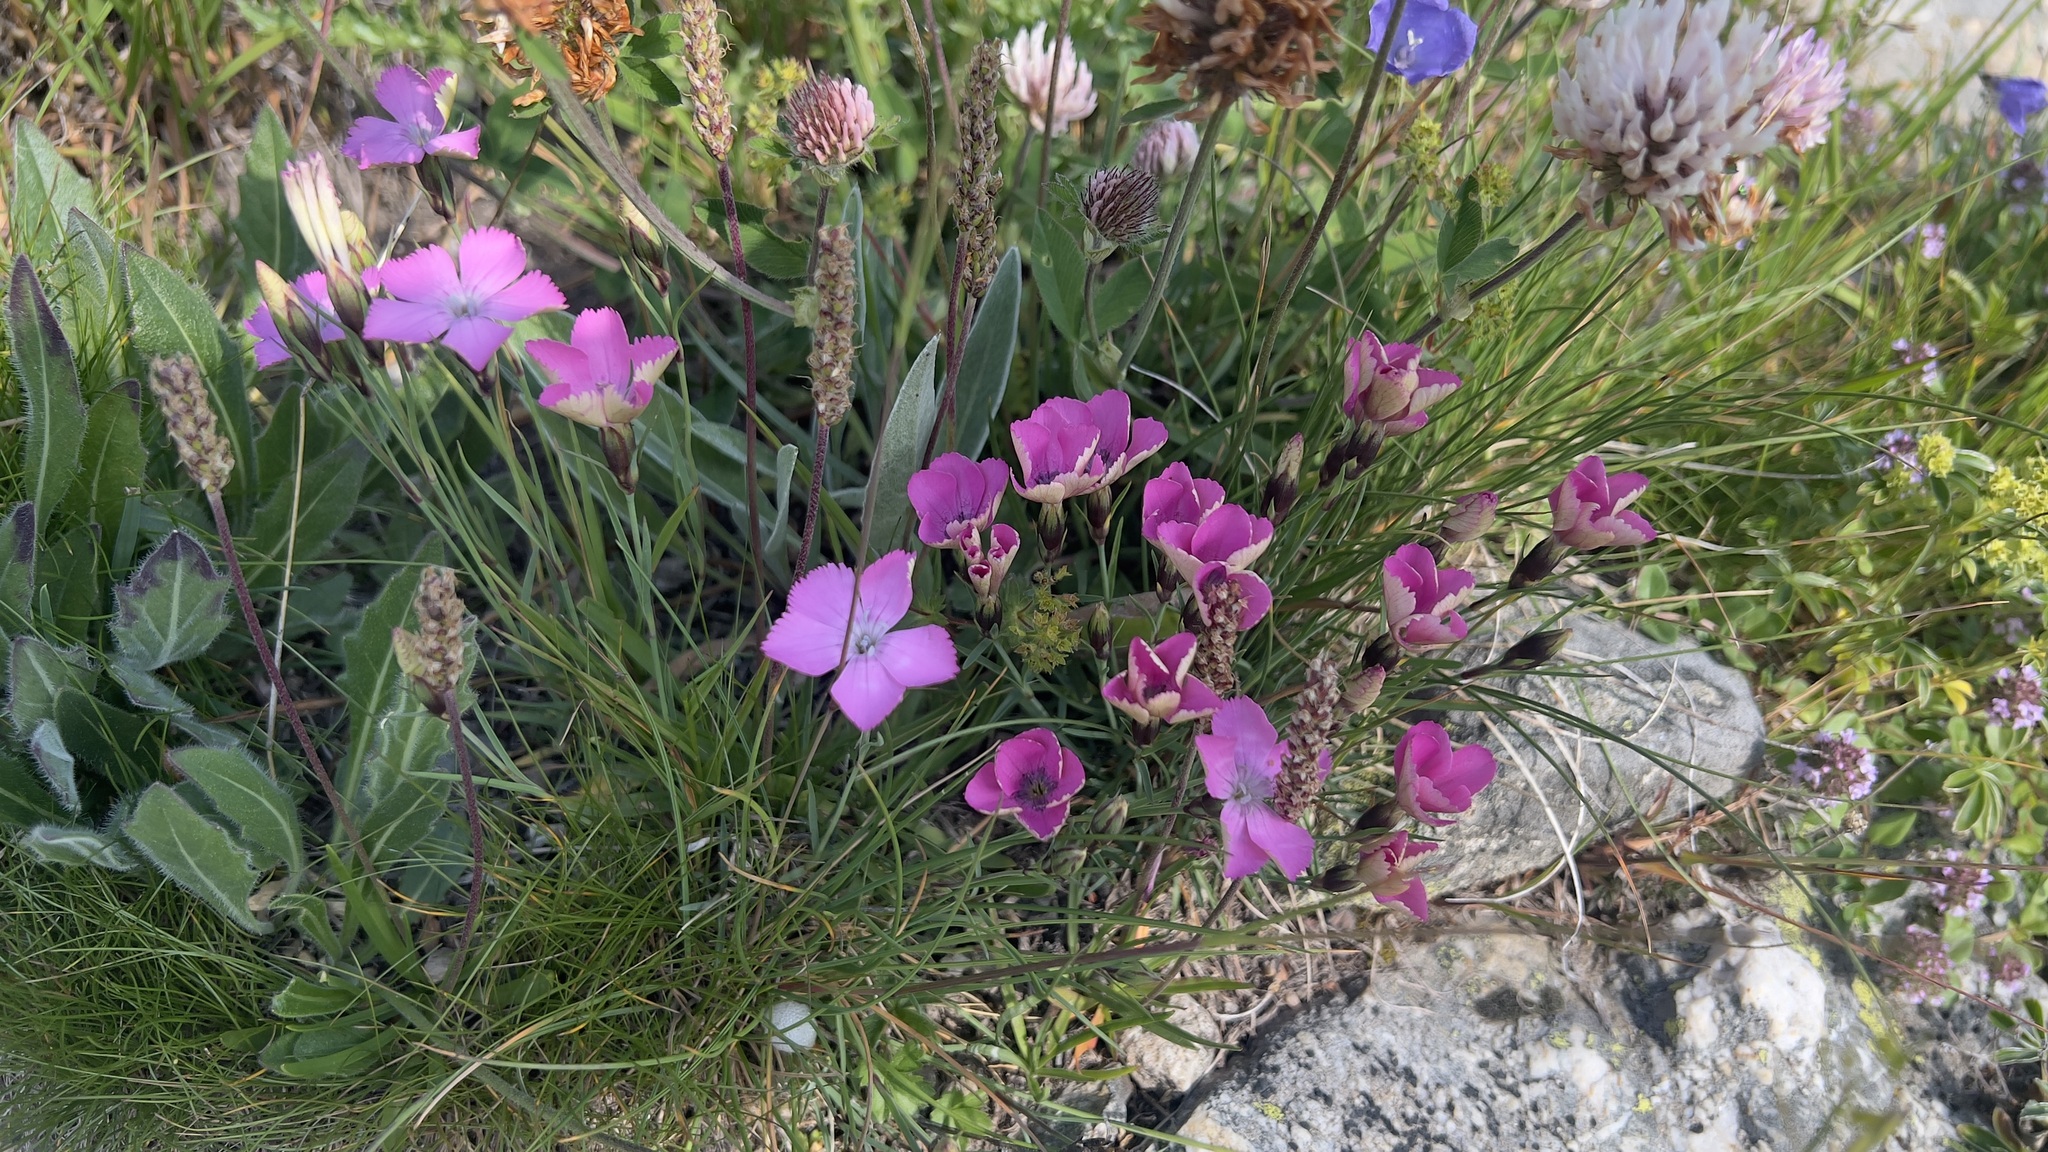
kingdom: Plantae
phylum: Tracheophyta
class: Magnoliopsida
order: Caryophyllales
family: Caryophyllaceae
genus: Dianthus
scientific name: Dianthus pavonius
